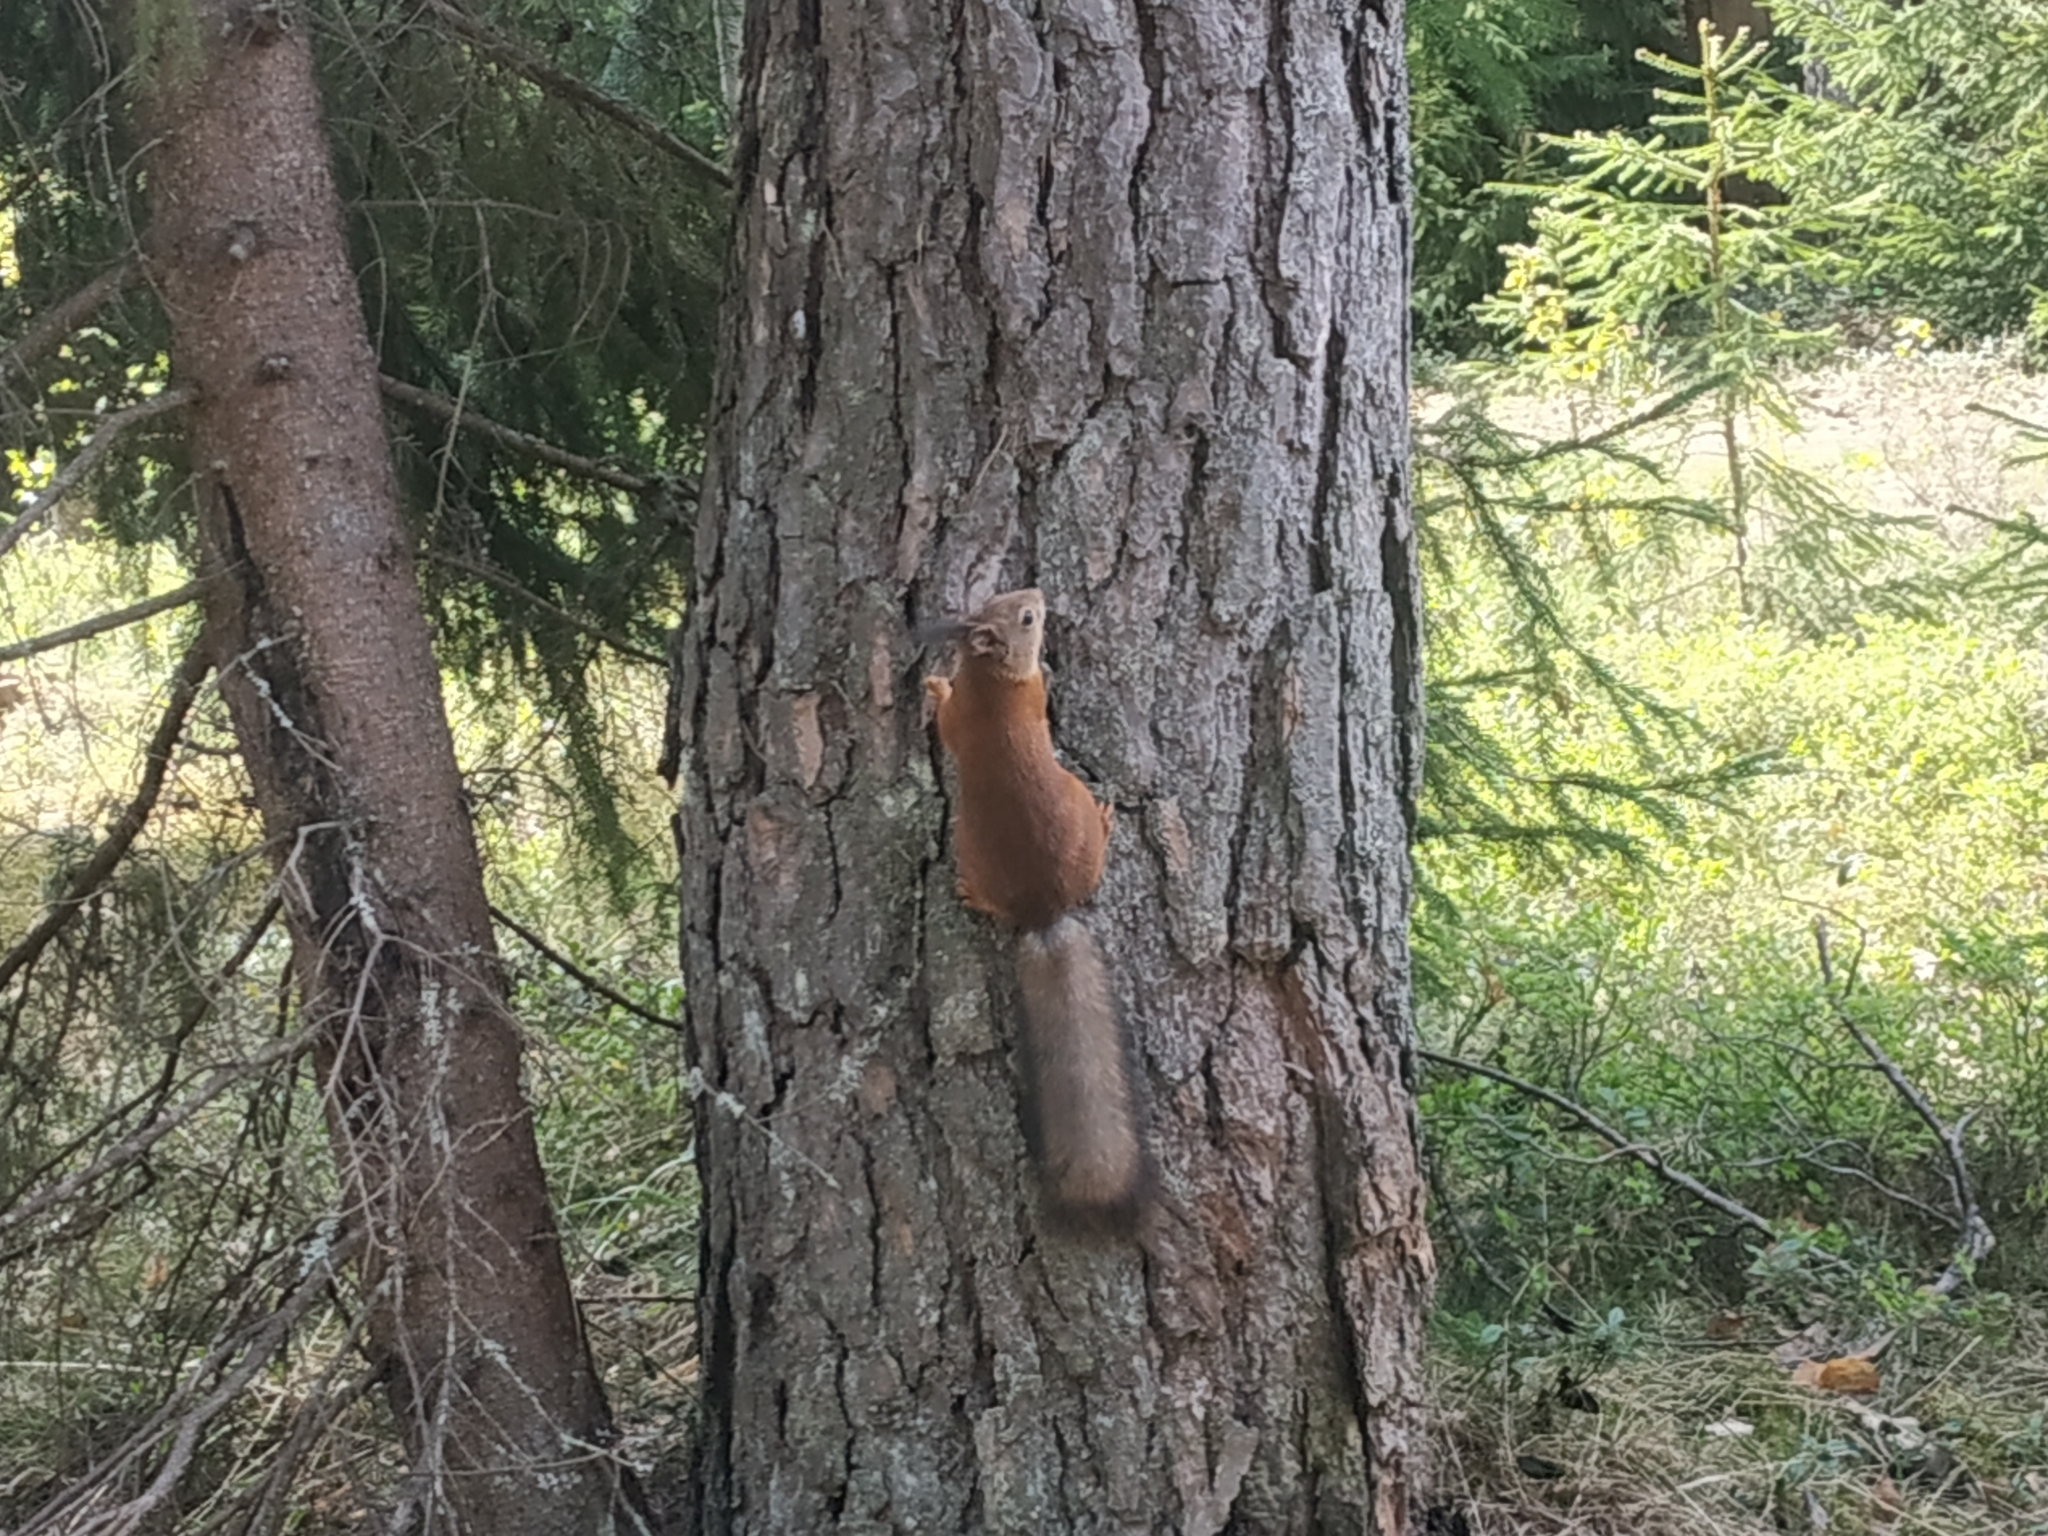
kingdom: Animalia
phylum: Chordata
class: Mammalia
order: Rodentia
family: Sciuridae
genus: Sciurus
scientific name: Sciurus vulgaris
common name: Eurasian red squirrel
